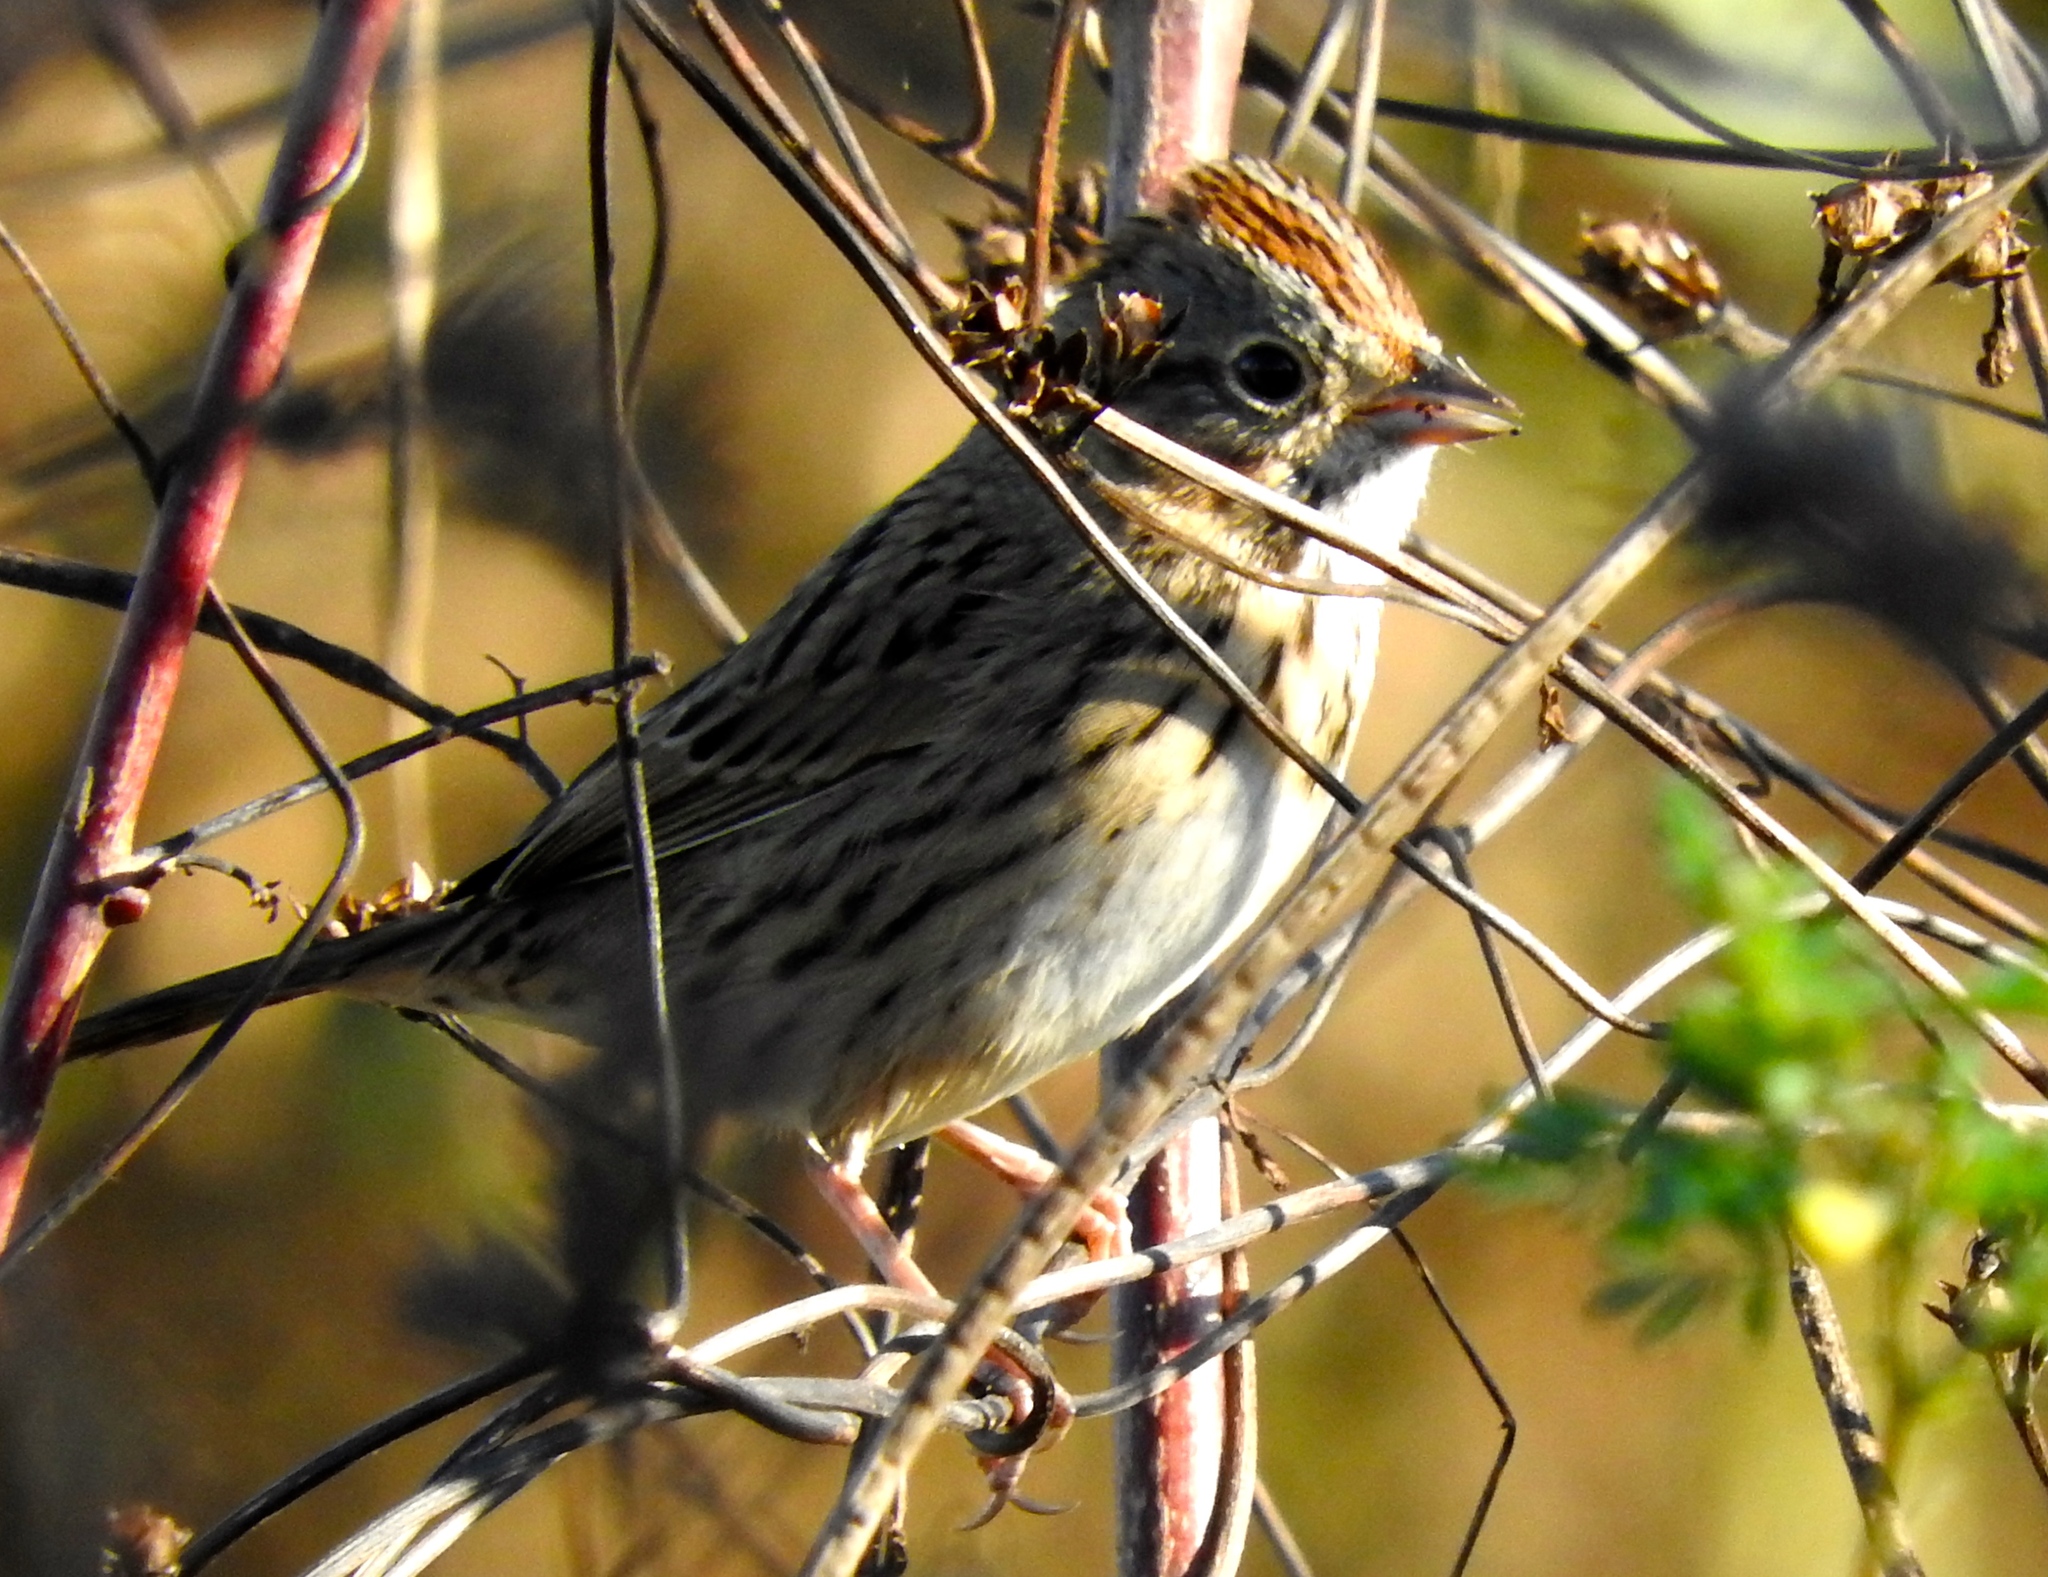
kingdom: Animalia
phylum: Chordata
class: Aves
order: Passeriformes
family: Passerellidae
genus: Melospiza
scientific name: Melospiza lincolnii
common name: Lincoln's sparrow
